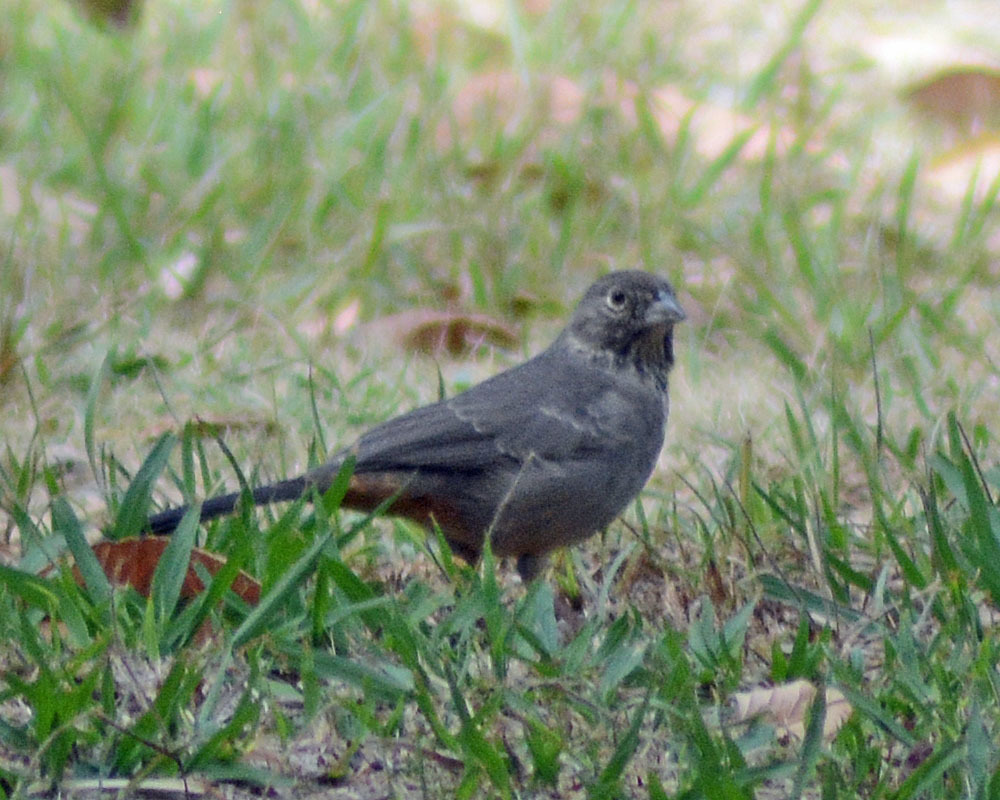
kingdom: Animalia
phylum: Chordata
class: Aves
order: Passeriformes
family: Passerellidae
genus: Melozone
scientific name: Melozone fusca
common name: Canyon towhee
